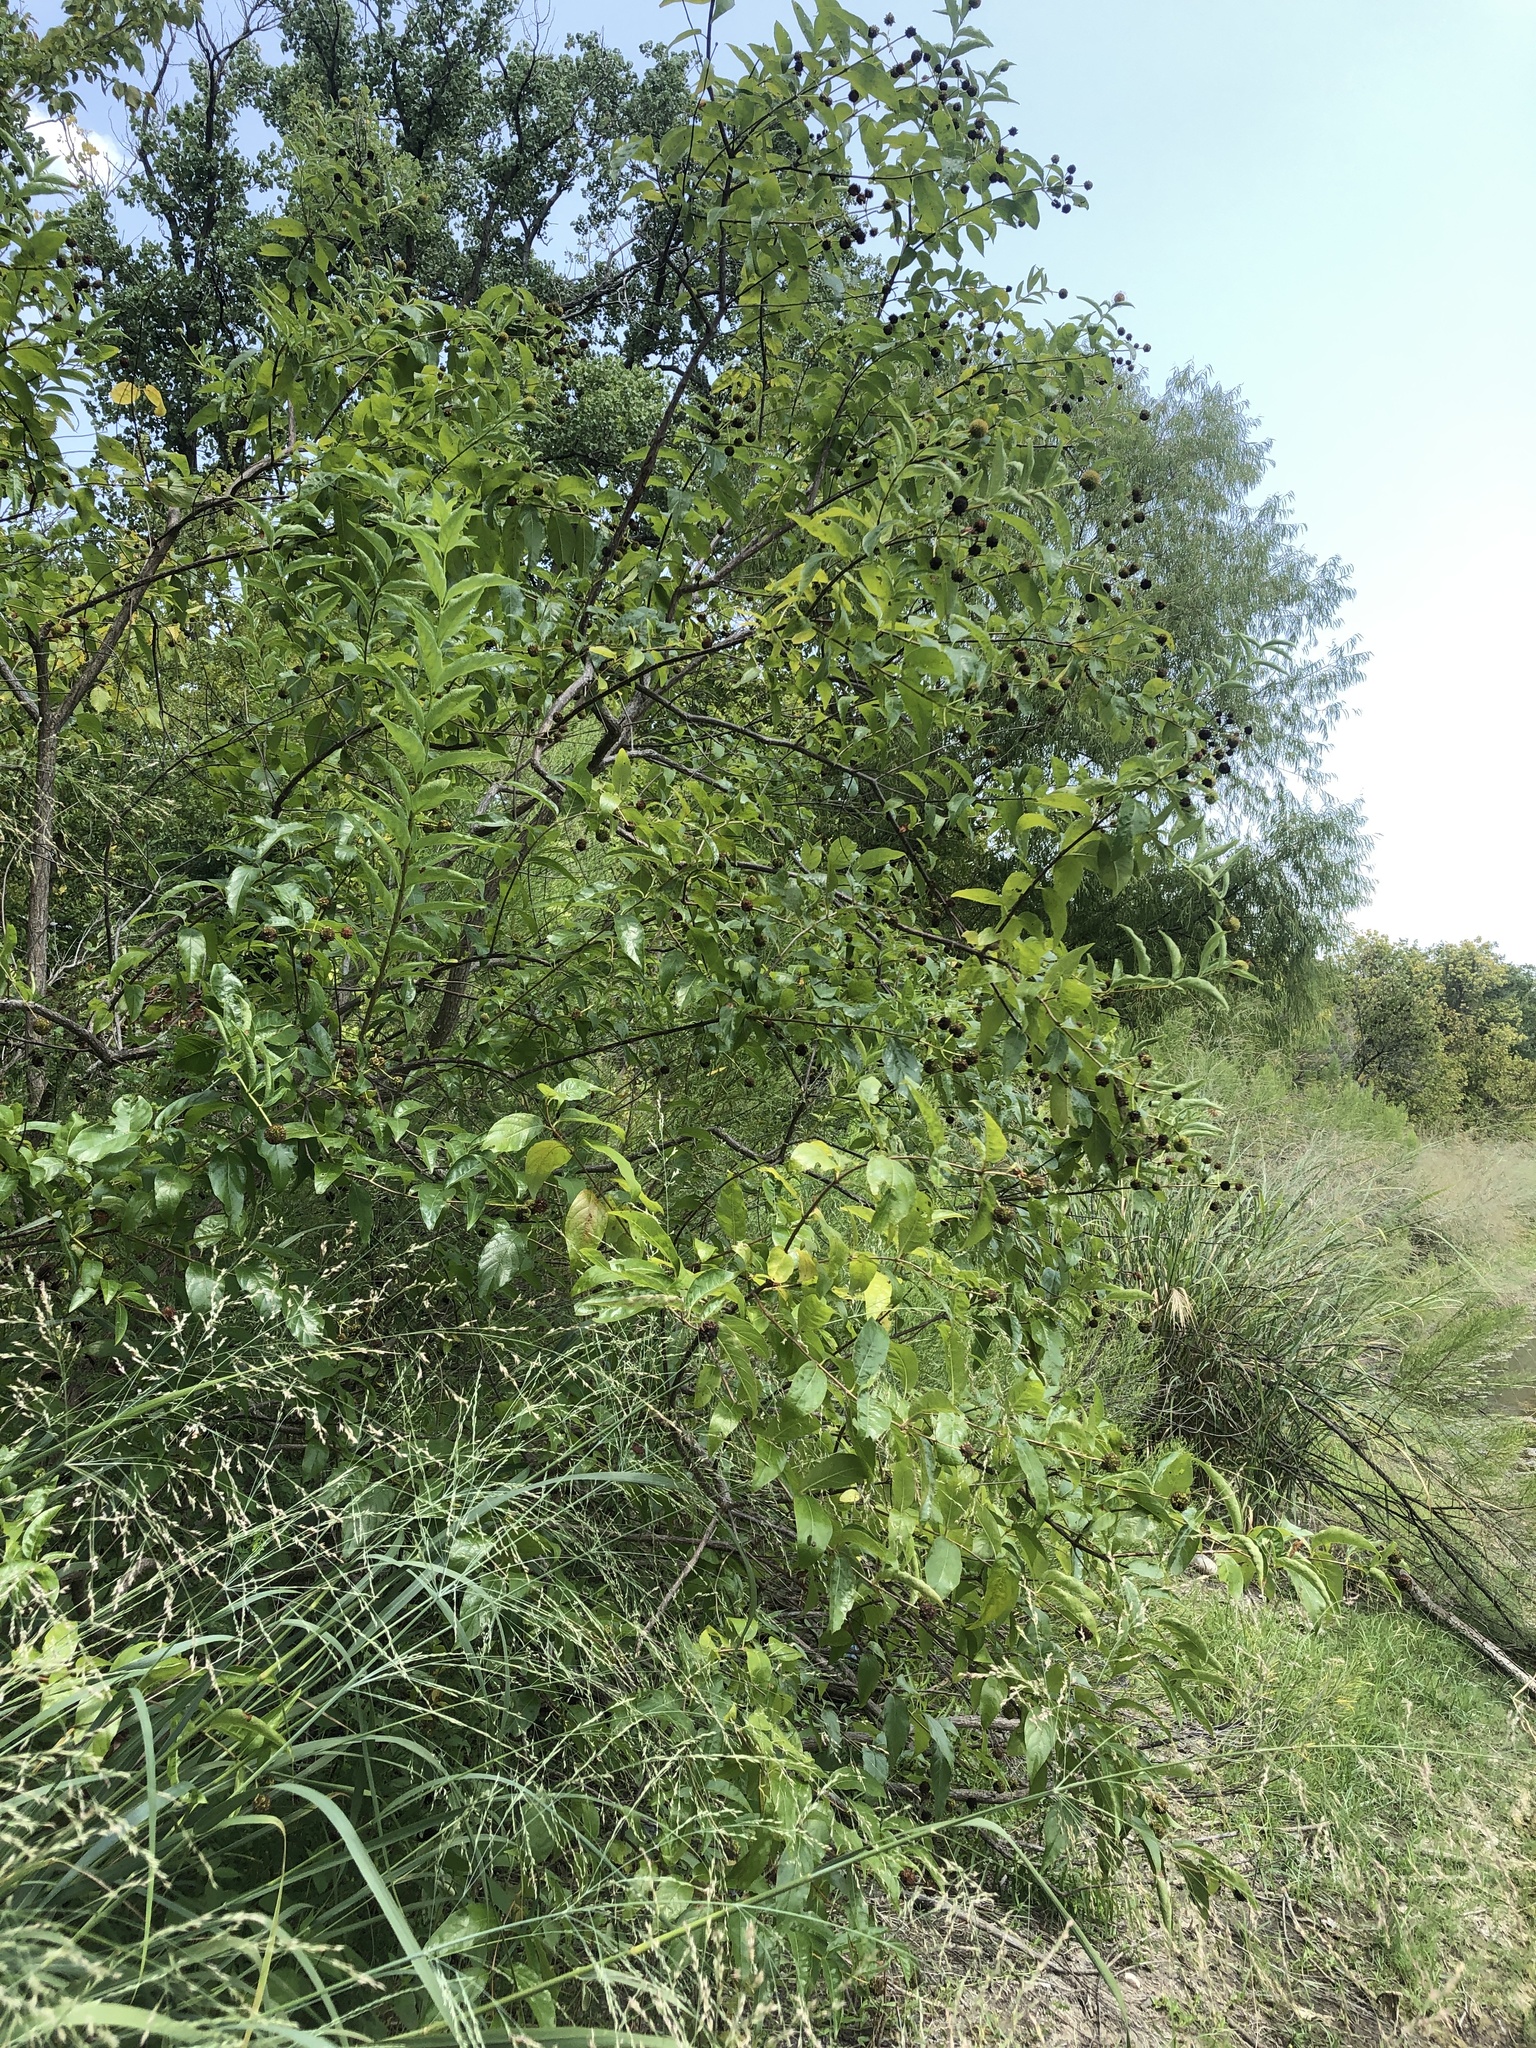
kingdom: Plantae
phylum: Tracheophyta
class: Magnoliopsida
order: Gentianales
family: Rubiaceae
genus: Cephalanthus
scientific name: Cephalanthus occidentalis
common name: Button-willow
